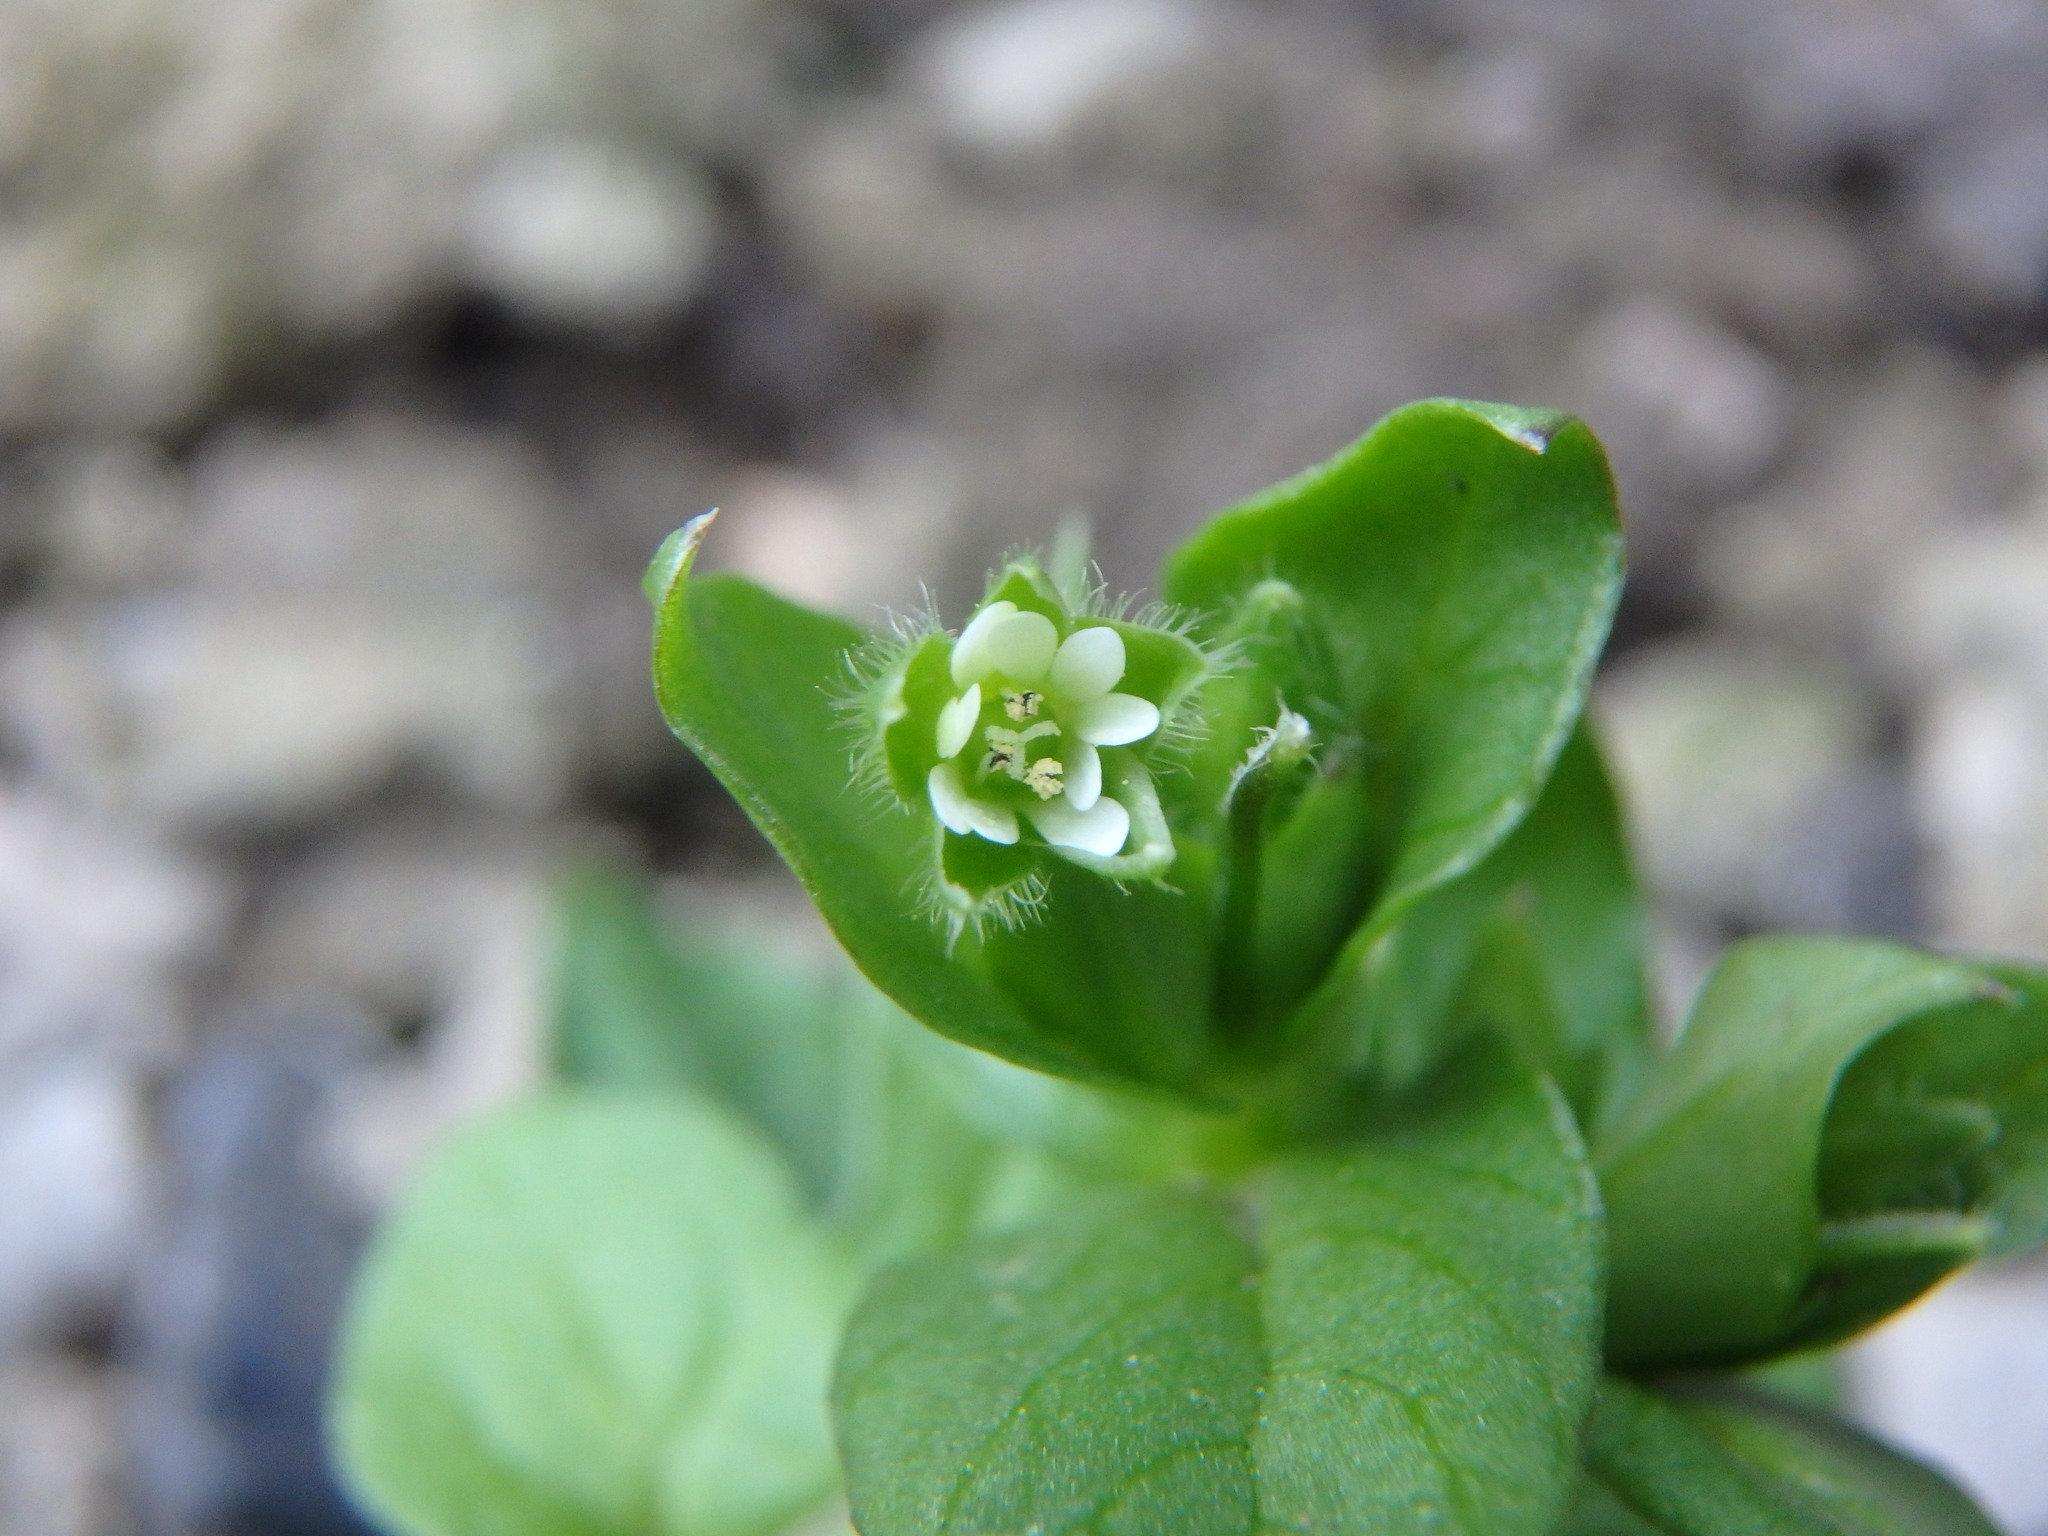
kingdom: Plantae
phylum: Tracheophyta
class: Magnoliopsida
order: Caryophyllales
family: Caryophyllaceae
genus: Stellaria
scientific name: Stellaria media
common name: Common chickweed
